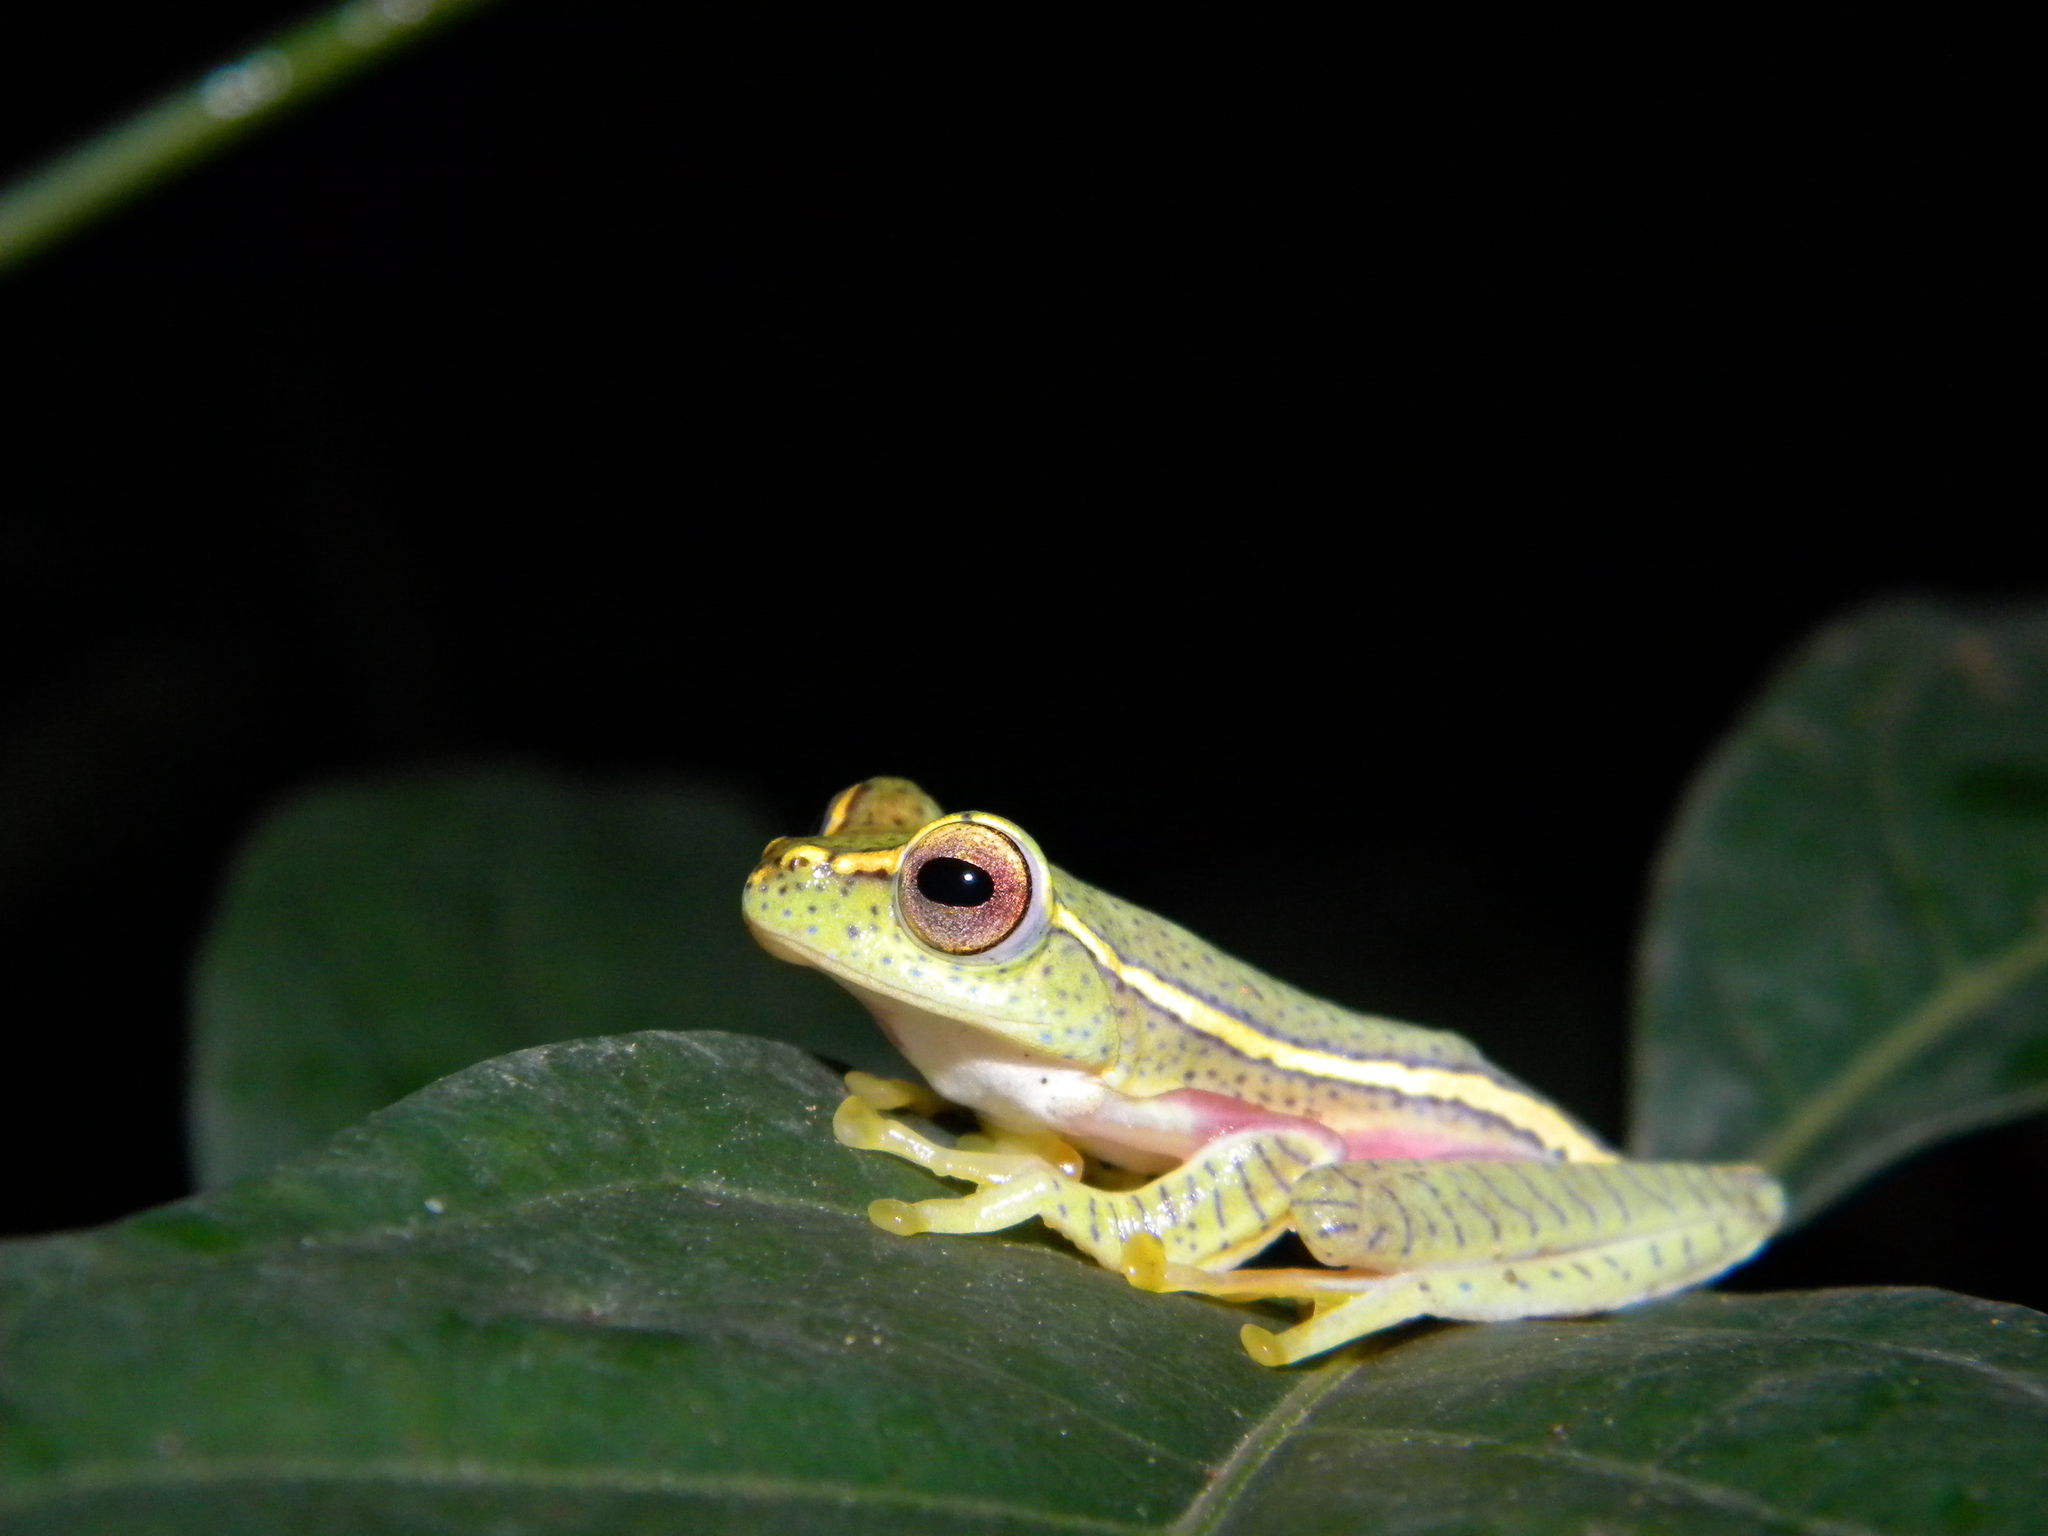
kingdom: Animalia
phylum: Chordata
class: Amphibia
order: Anura
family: Rhacophoridae
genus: Rhacophorus
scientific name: Rhacophorus lateralis
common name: Boulenger's tree frog
